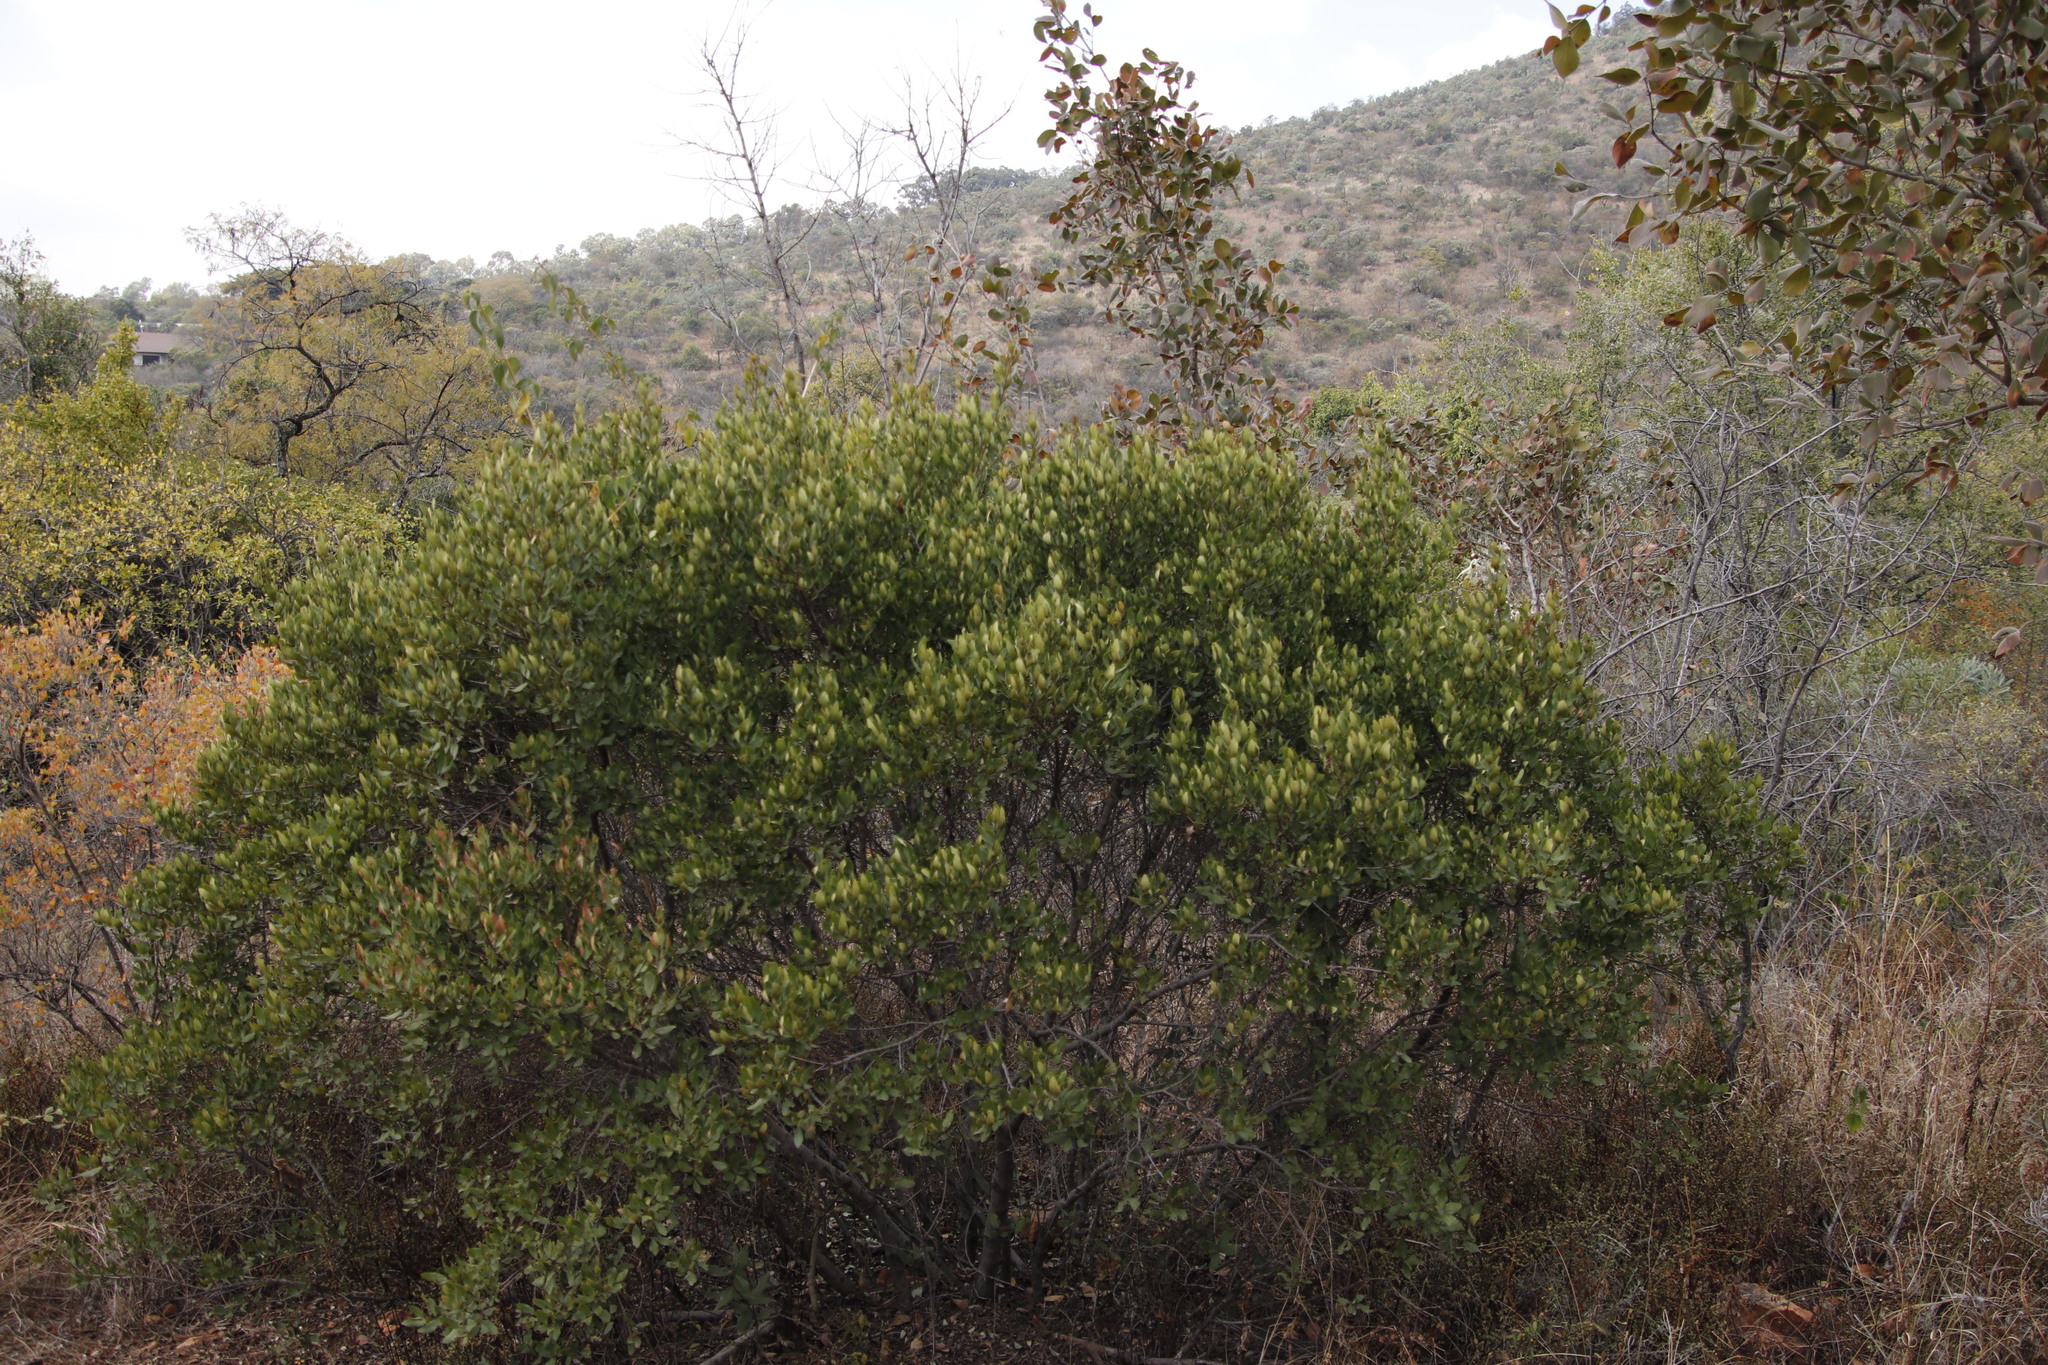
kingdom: Plantae
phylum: Tracheophyta
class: Magnoliopsida
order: Ericales
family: Ebenaceae
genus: Euclea
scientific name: Euclea crispa
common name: Blue guarri
